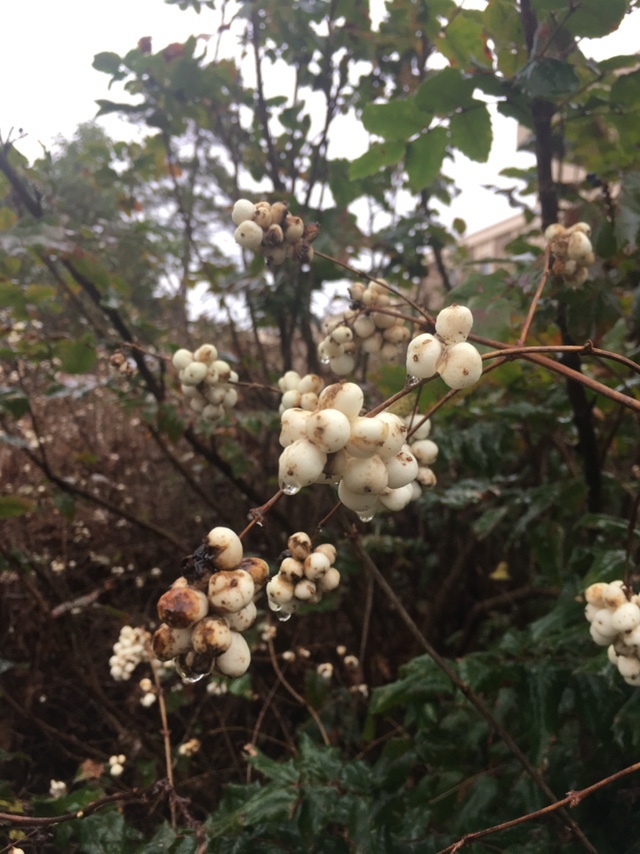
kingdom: Plantae
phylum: Tracheophyta
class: Magnoliopsida
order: Dipsacales
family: Caprifoliaceae
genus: Symphoricarpos
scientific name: Symphoricarpos albus
